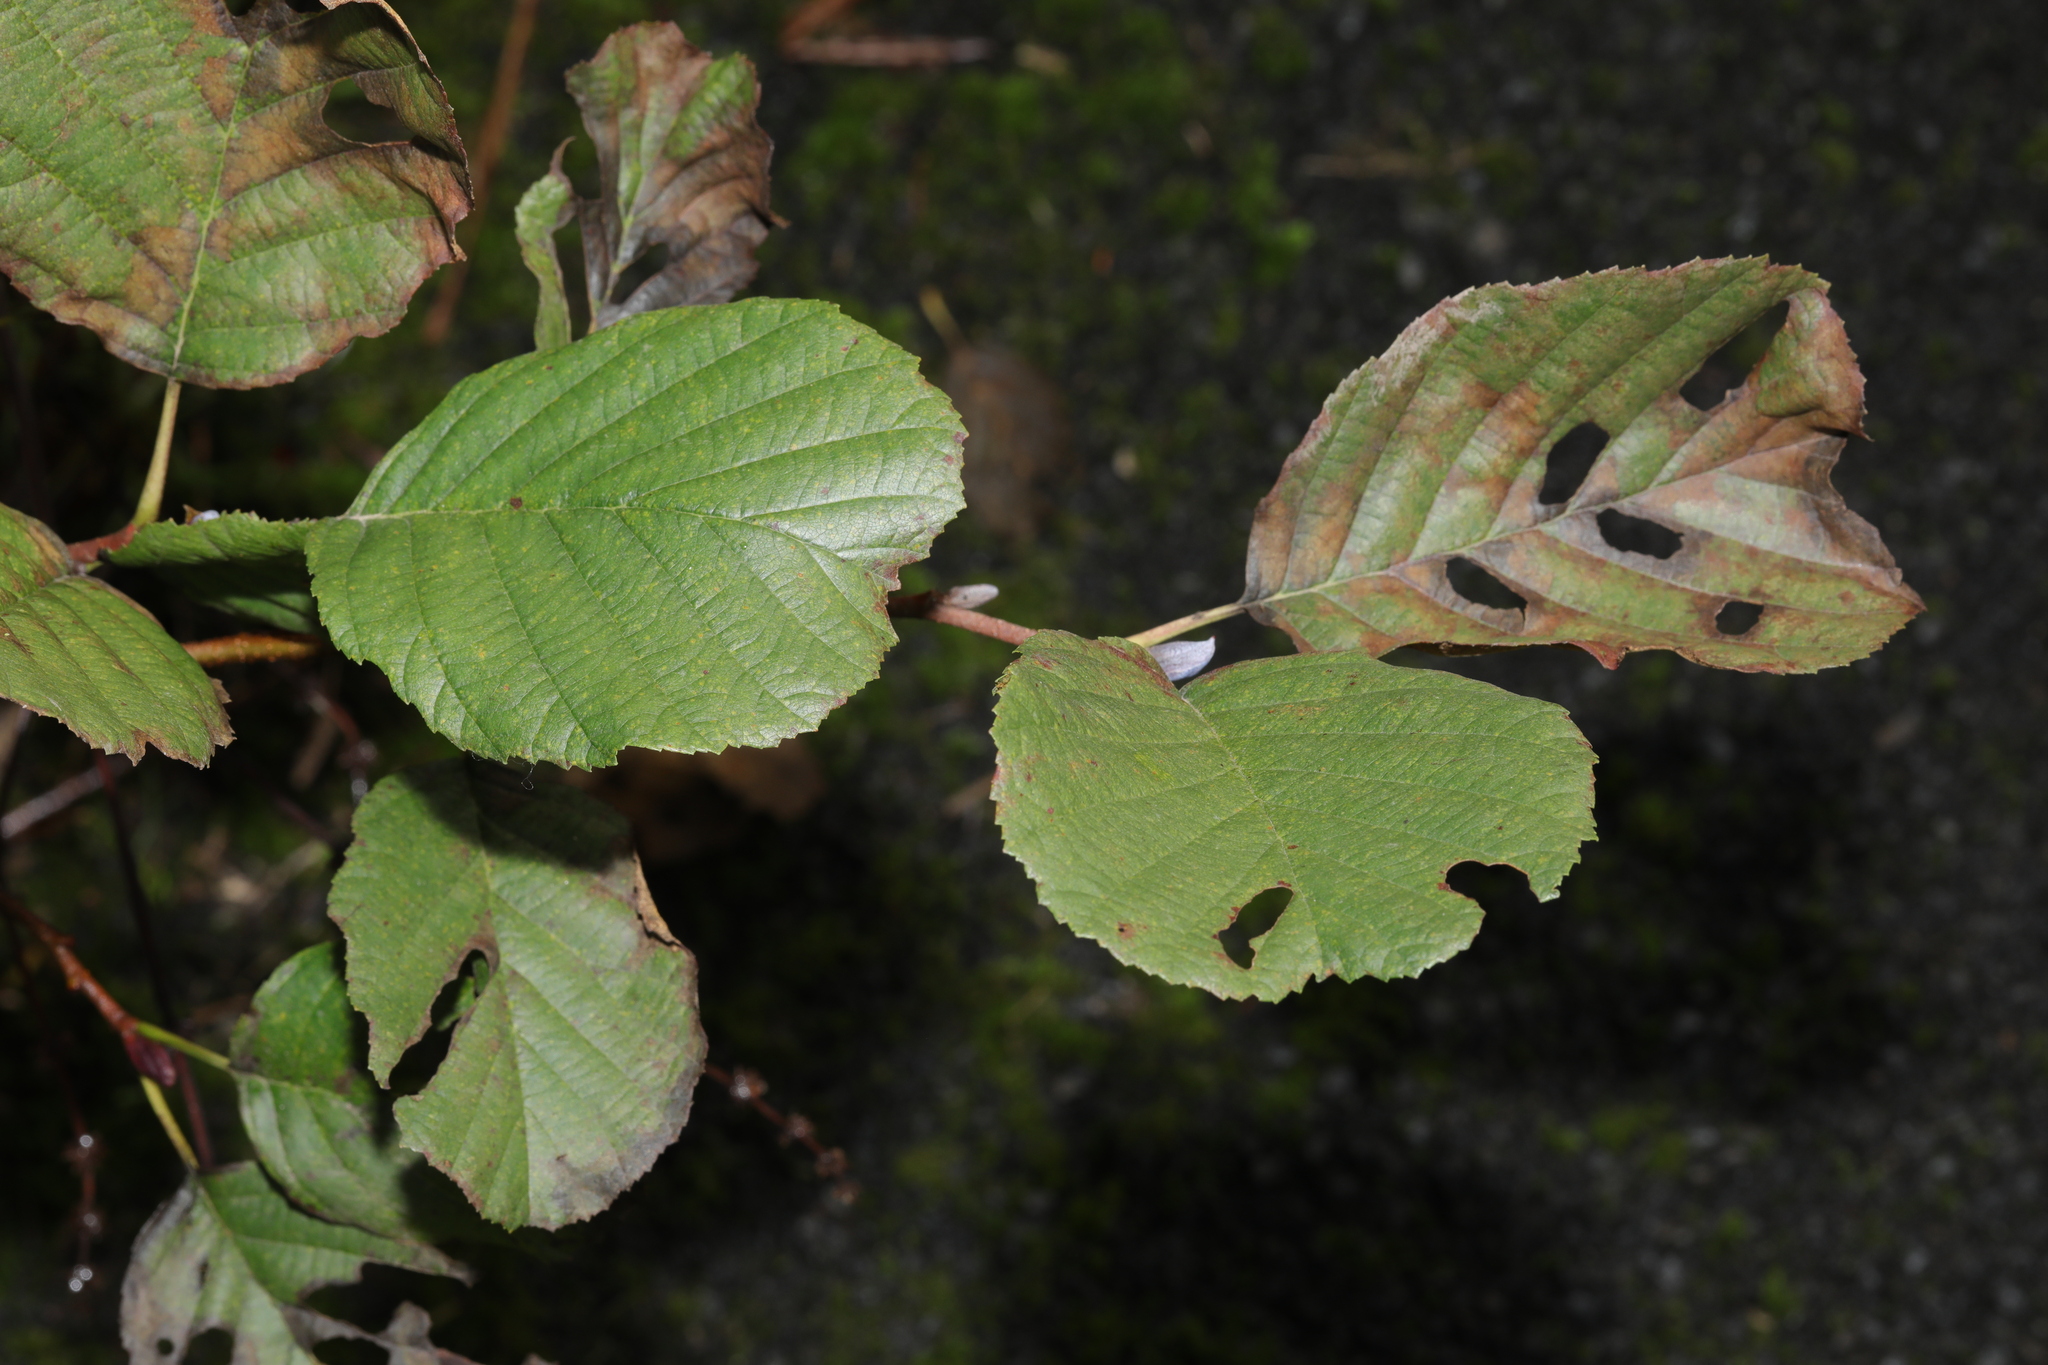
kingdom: Plantae
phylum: Tracheophyta
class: Magnoliopsida
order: Fagales
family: Betulaceae
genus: Alnus
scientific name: Alnus glutinosa
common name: Black alder
